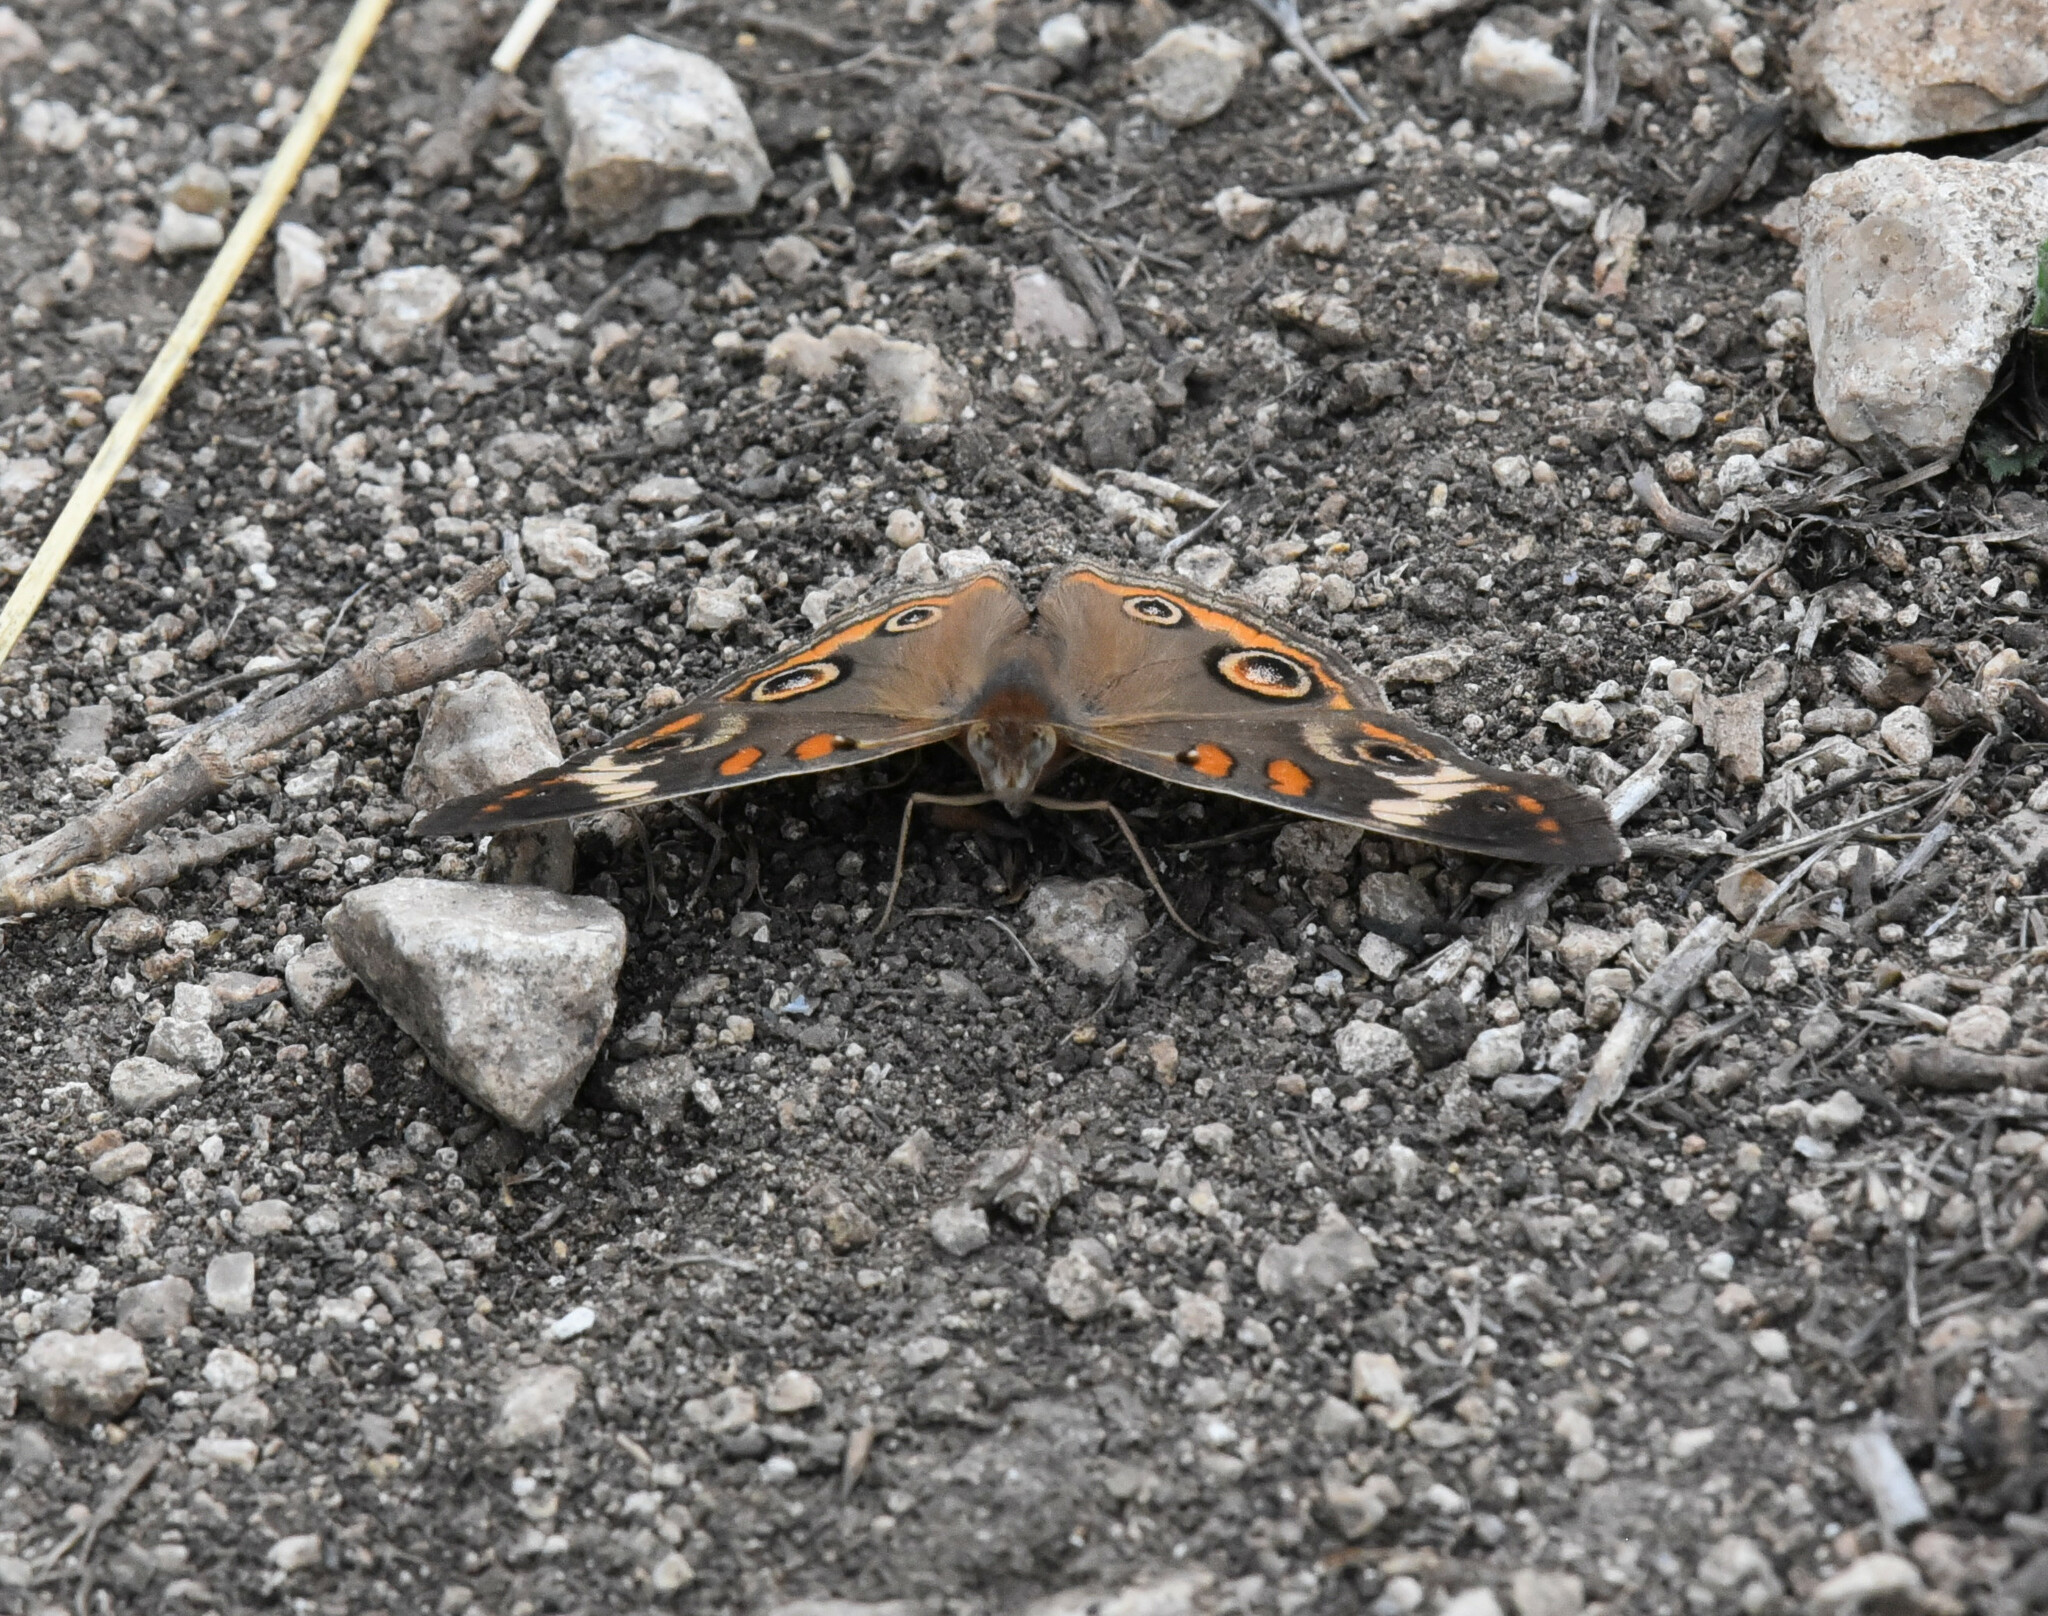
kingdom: Animalia
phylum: Arthropoda
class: Insecta
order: Lepidoptera
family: Nymphalidae
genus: Junonia
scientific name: Junonia coenia
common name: Common buckeye
